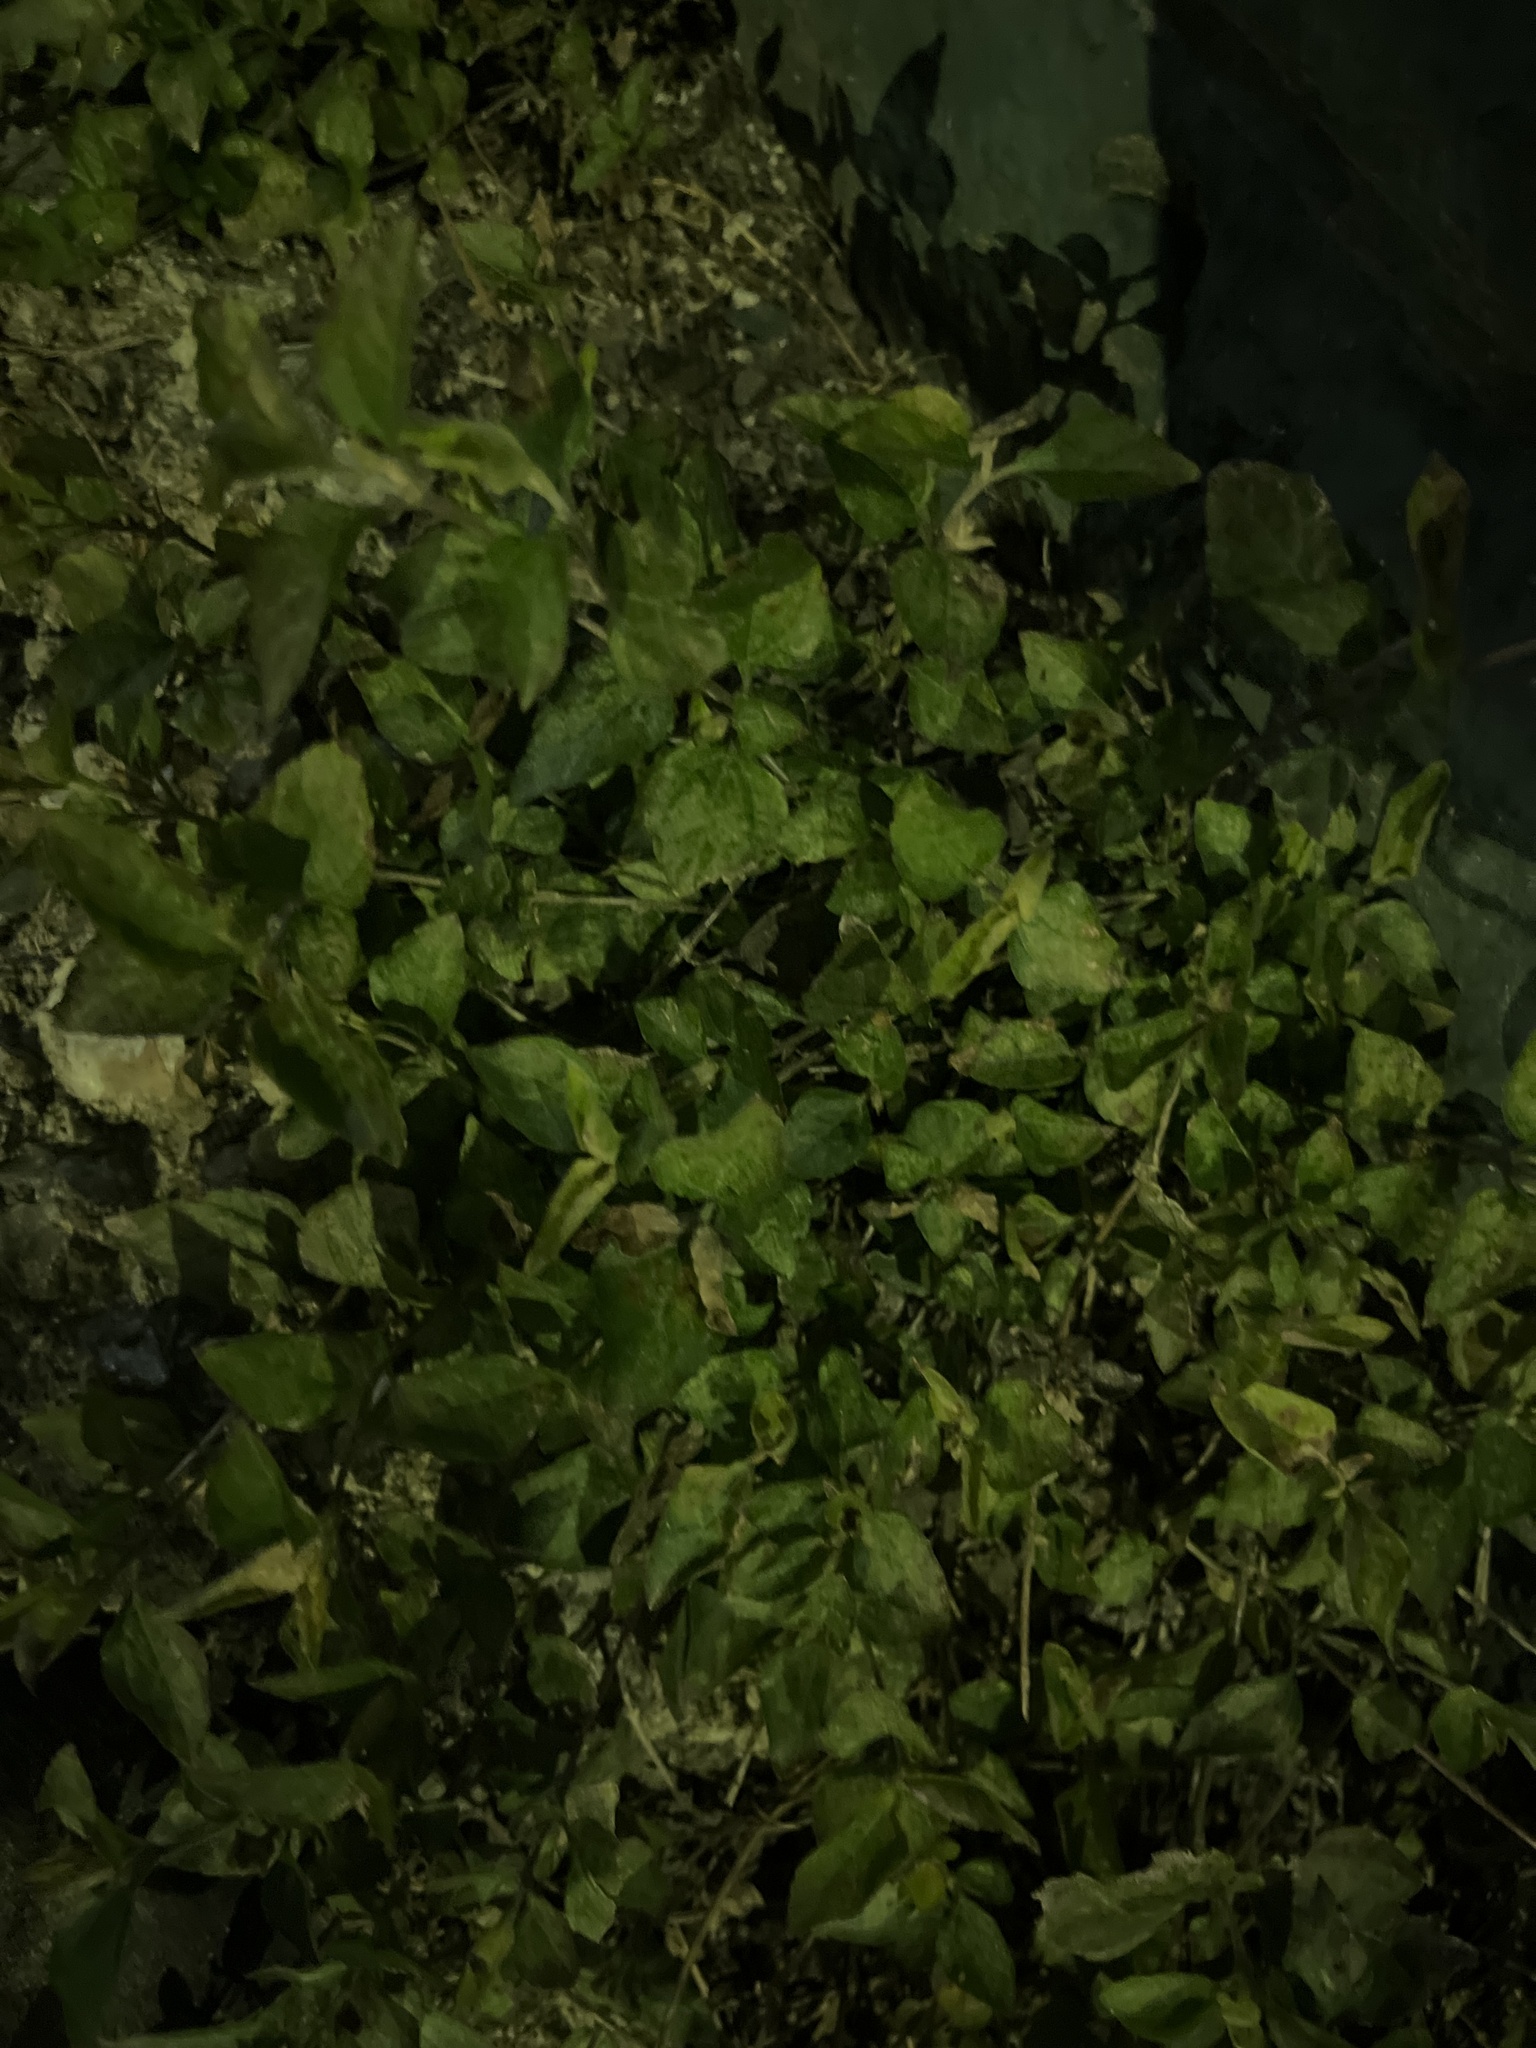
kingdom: Plantae
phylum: Tracheophyta
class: Magnoliopsida
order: Asterales
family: Asteraceae
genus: Calyptocarpus
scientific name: Calyptocarpus vialis
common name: Straggler daisy
